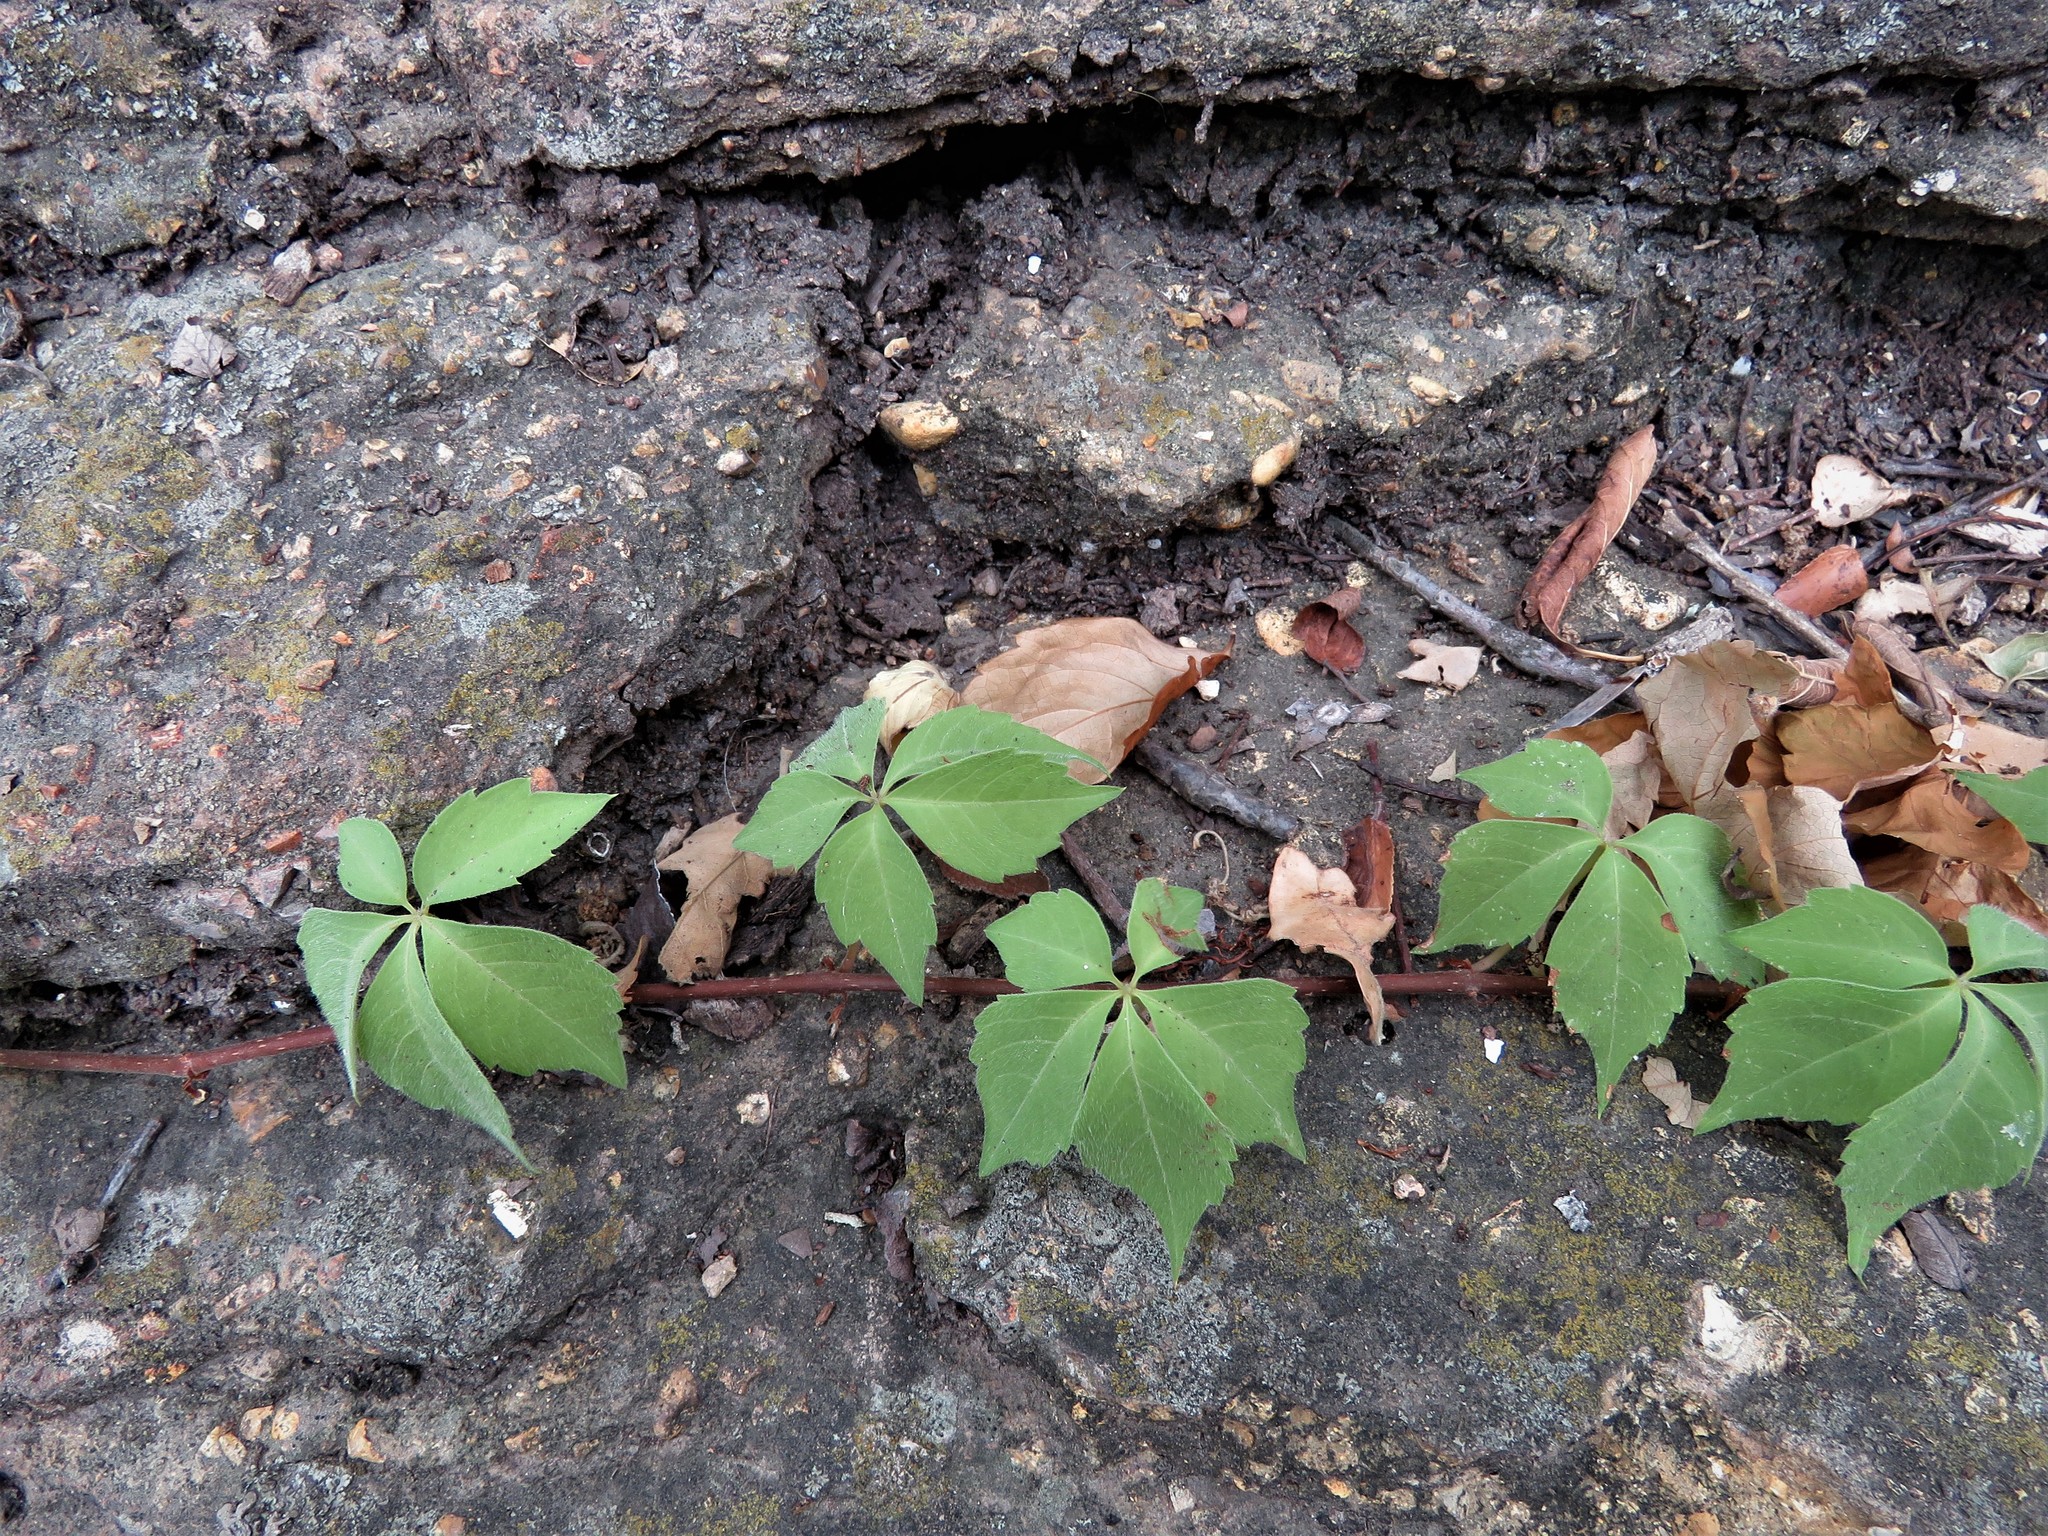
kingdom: Plantae
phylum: Tracheophyta
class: Magnoliopsida
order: Vitales
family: Vitaceae
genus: Parthenocissus
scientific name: Parthenocissus quinquefolia
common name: Virginia-creeper
